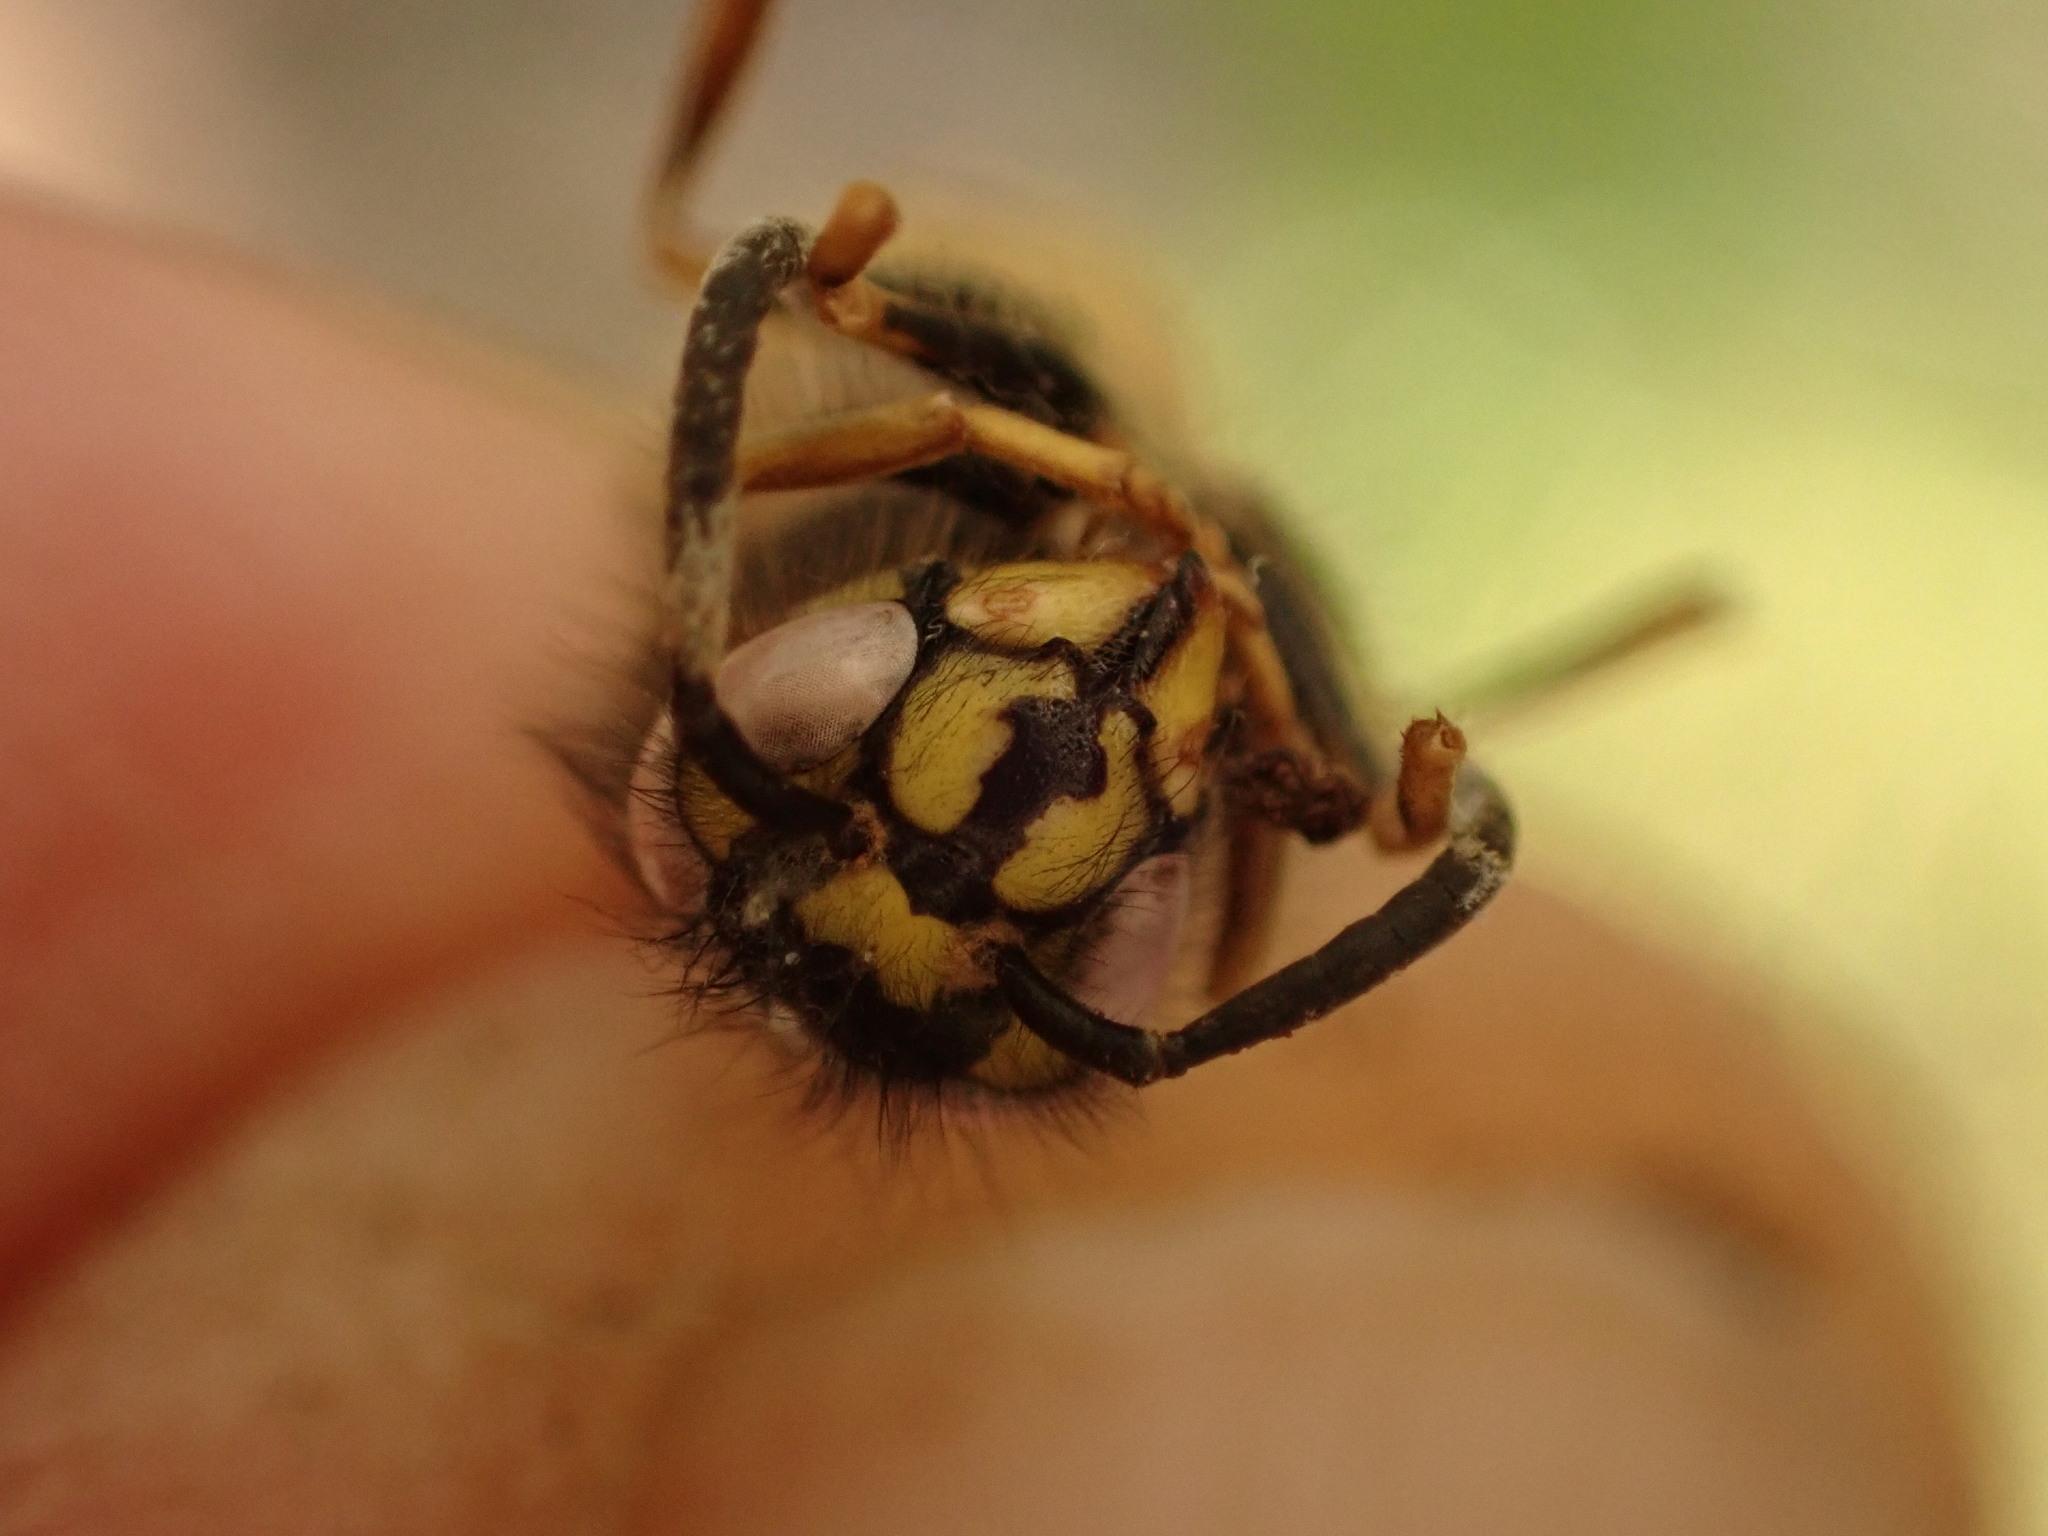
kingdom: Animalia
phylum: Arthropoda
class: Insecta
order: Hymenoptera
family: Vespidae
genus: Vespula
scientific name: Vespula vulgaris
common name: Common wasp
